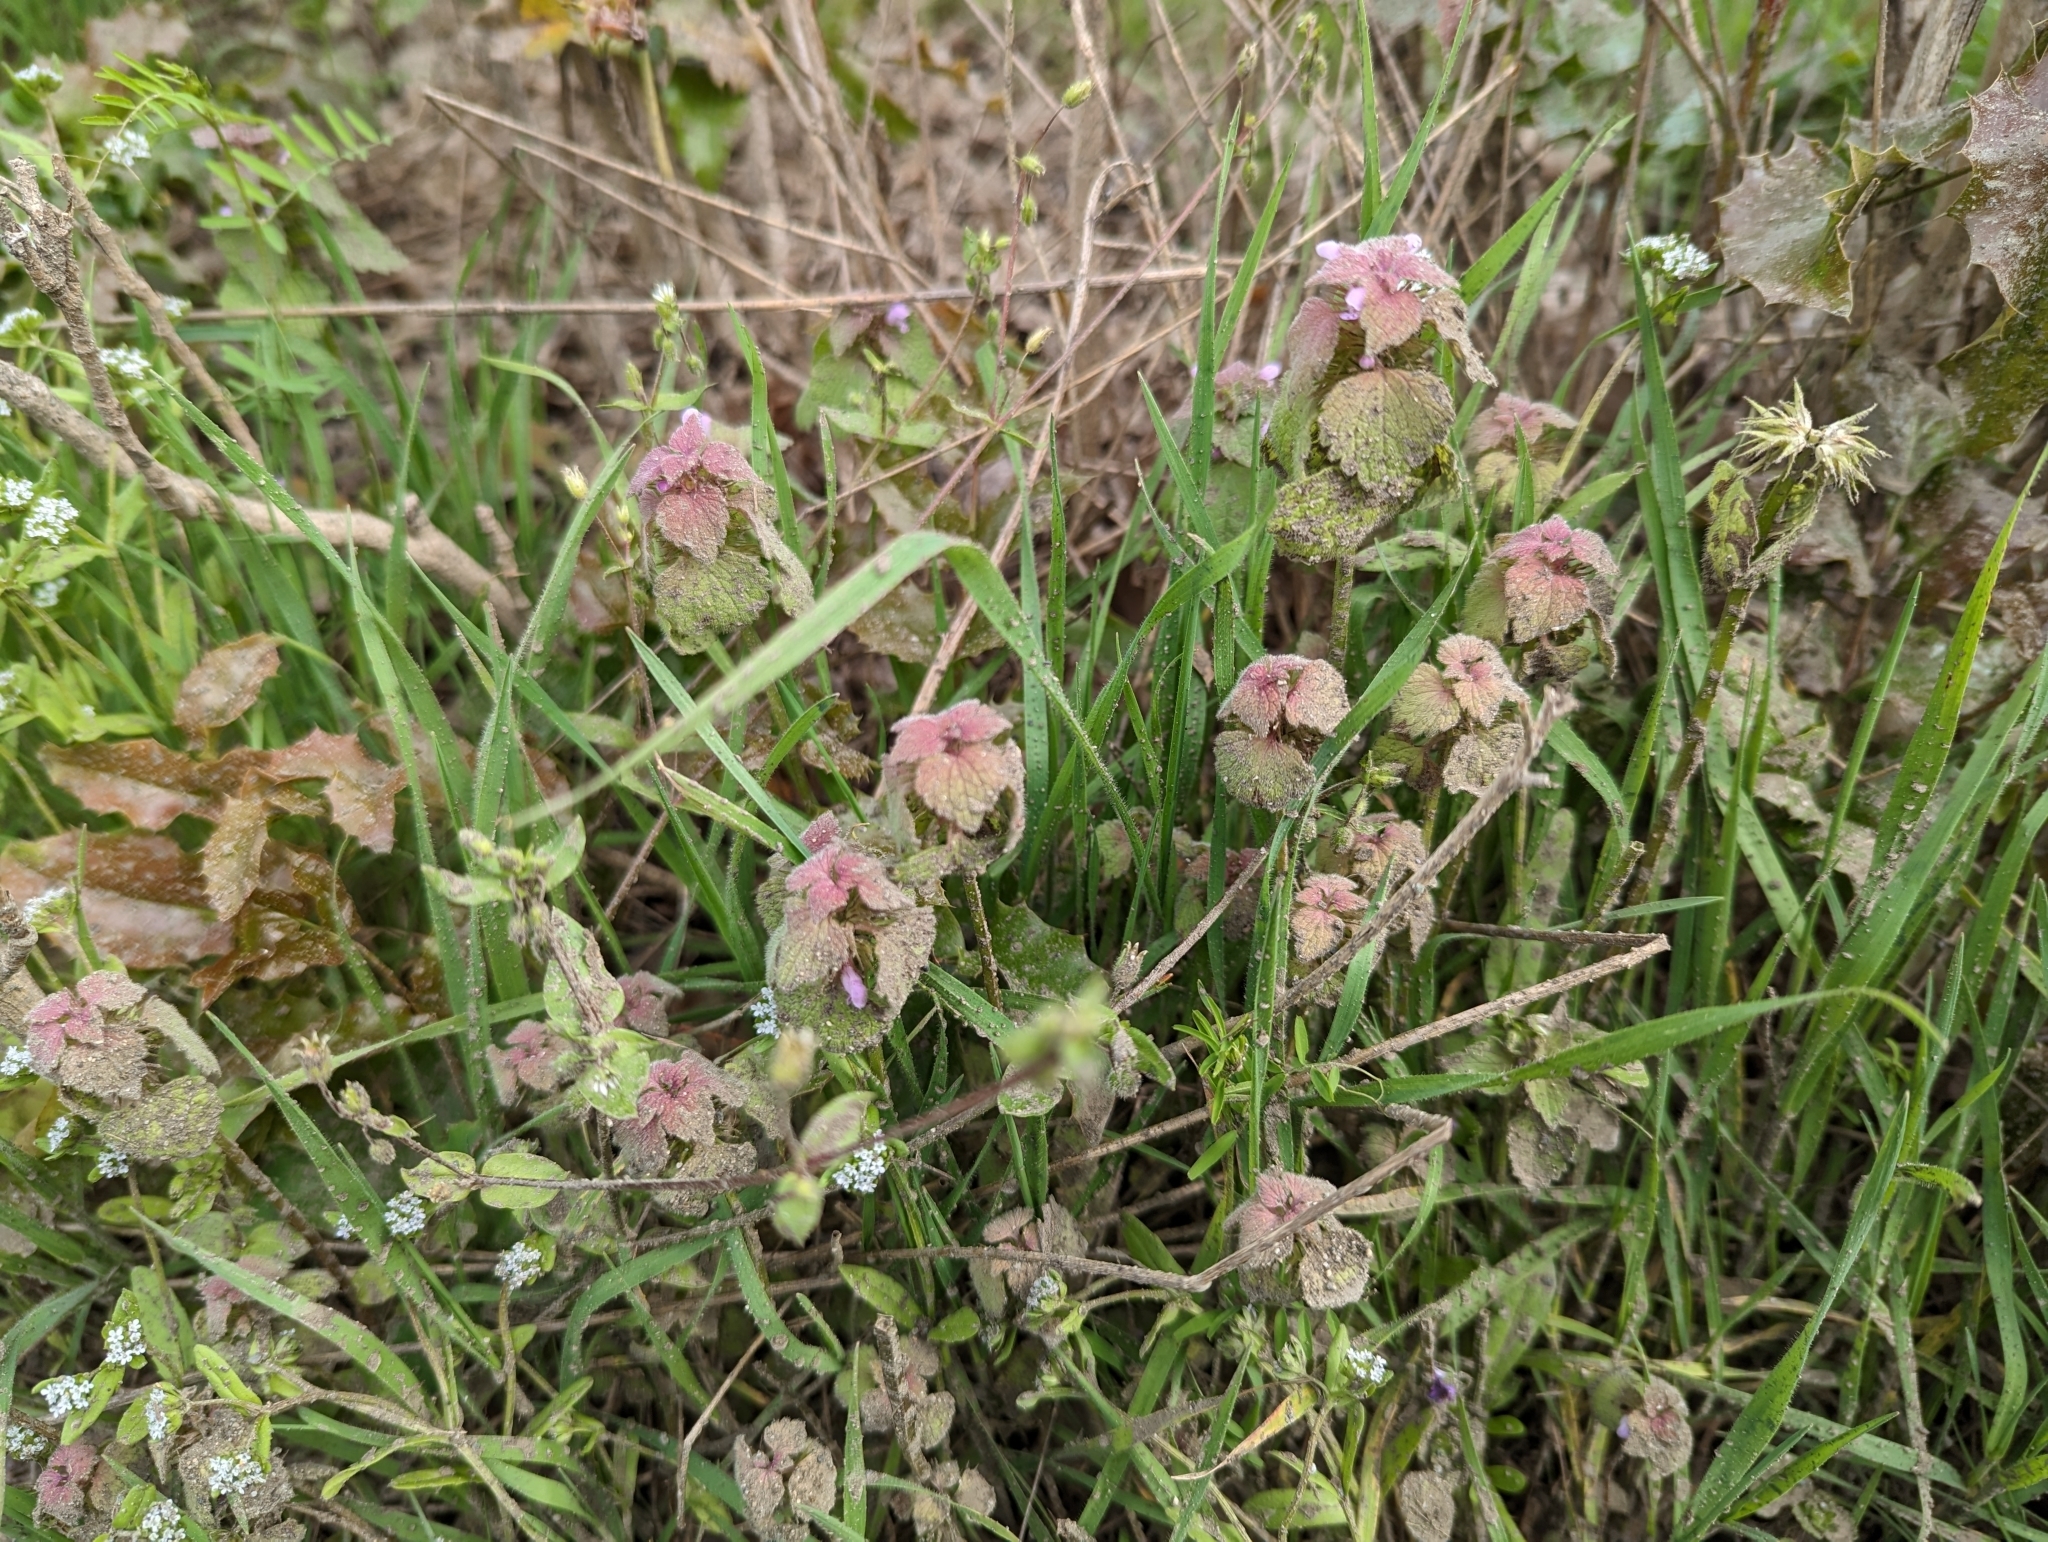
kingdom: Plantae
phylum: Tracheophyta
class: Magnoliopsida
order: Lamiales
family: Lamiaceae
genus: Lamium
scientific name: Lamium purpureum
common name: Red dead-nettle
